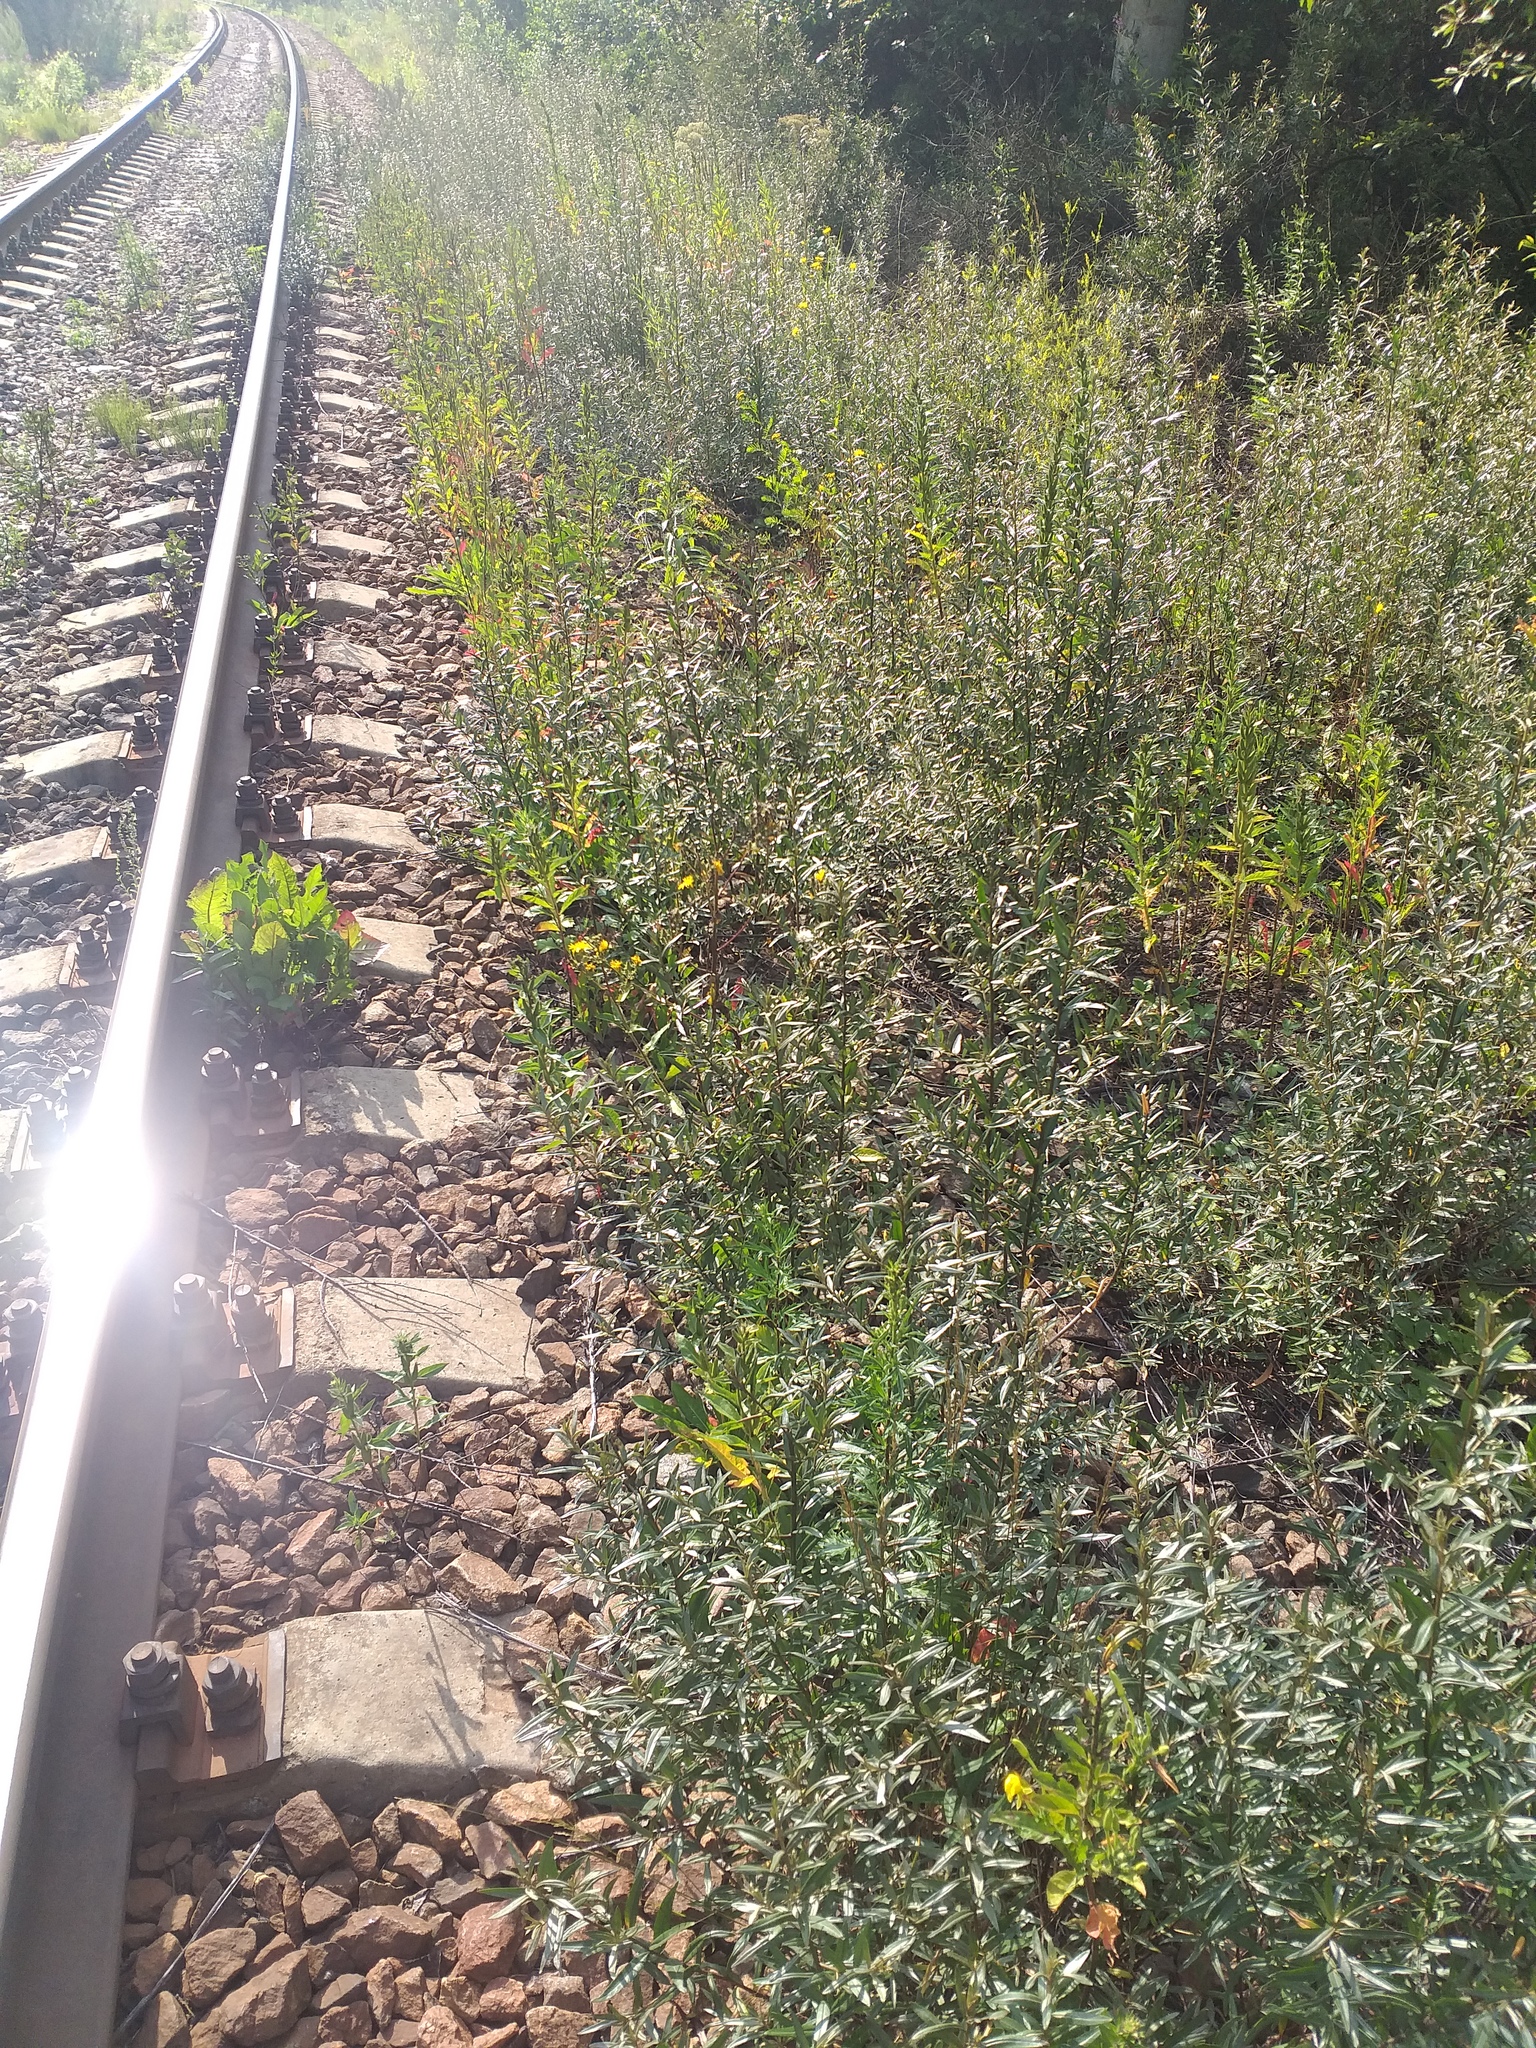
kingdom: Plantae
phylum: Tracheophyta
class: Magnoliopsida
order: Rosales
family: Elaeagnaceae
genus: Hippophae
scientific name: Hippophae rhamnoides
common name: Sea-buckthorn
